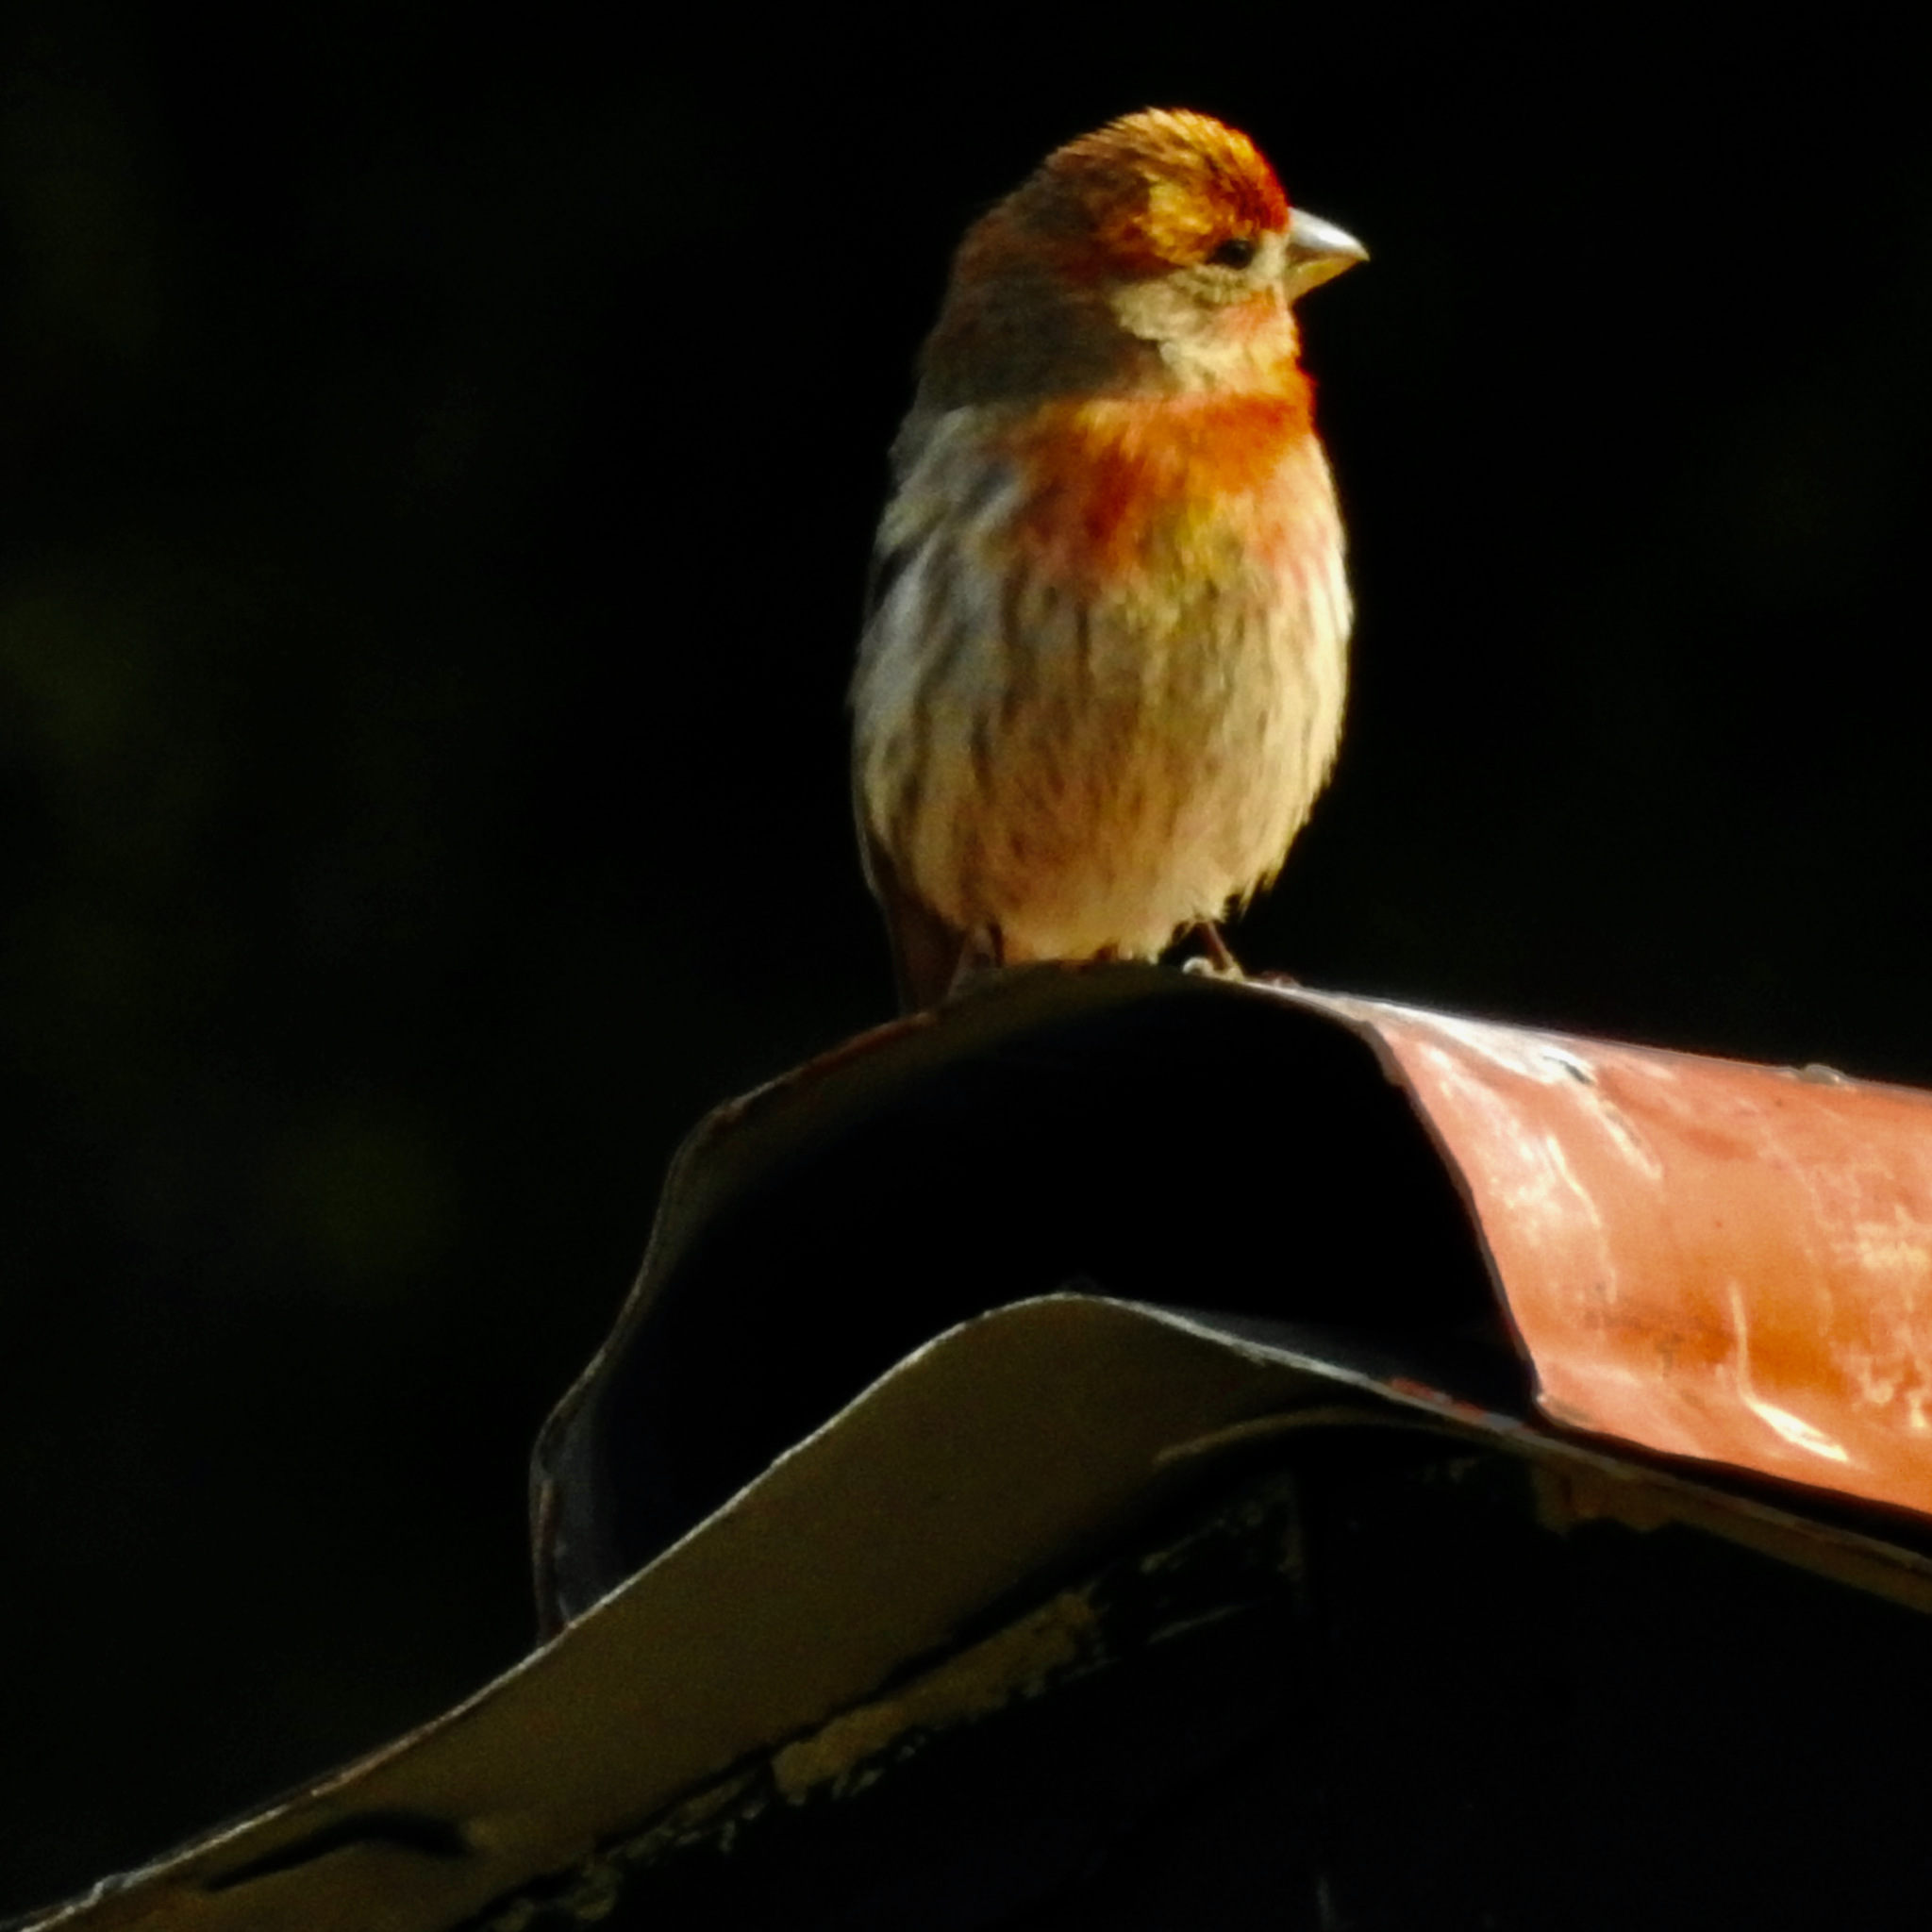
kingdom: Animalia
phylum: Chordata
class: Aves
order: Passeriformes
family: Fringillidae
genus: Haemorhous
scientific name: Haemorhous mexicanus
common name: House finch
